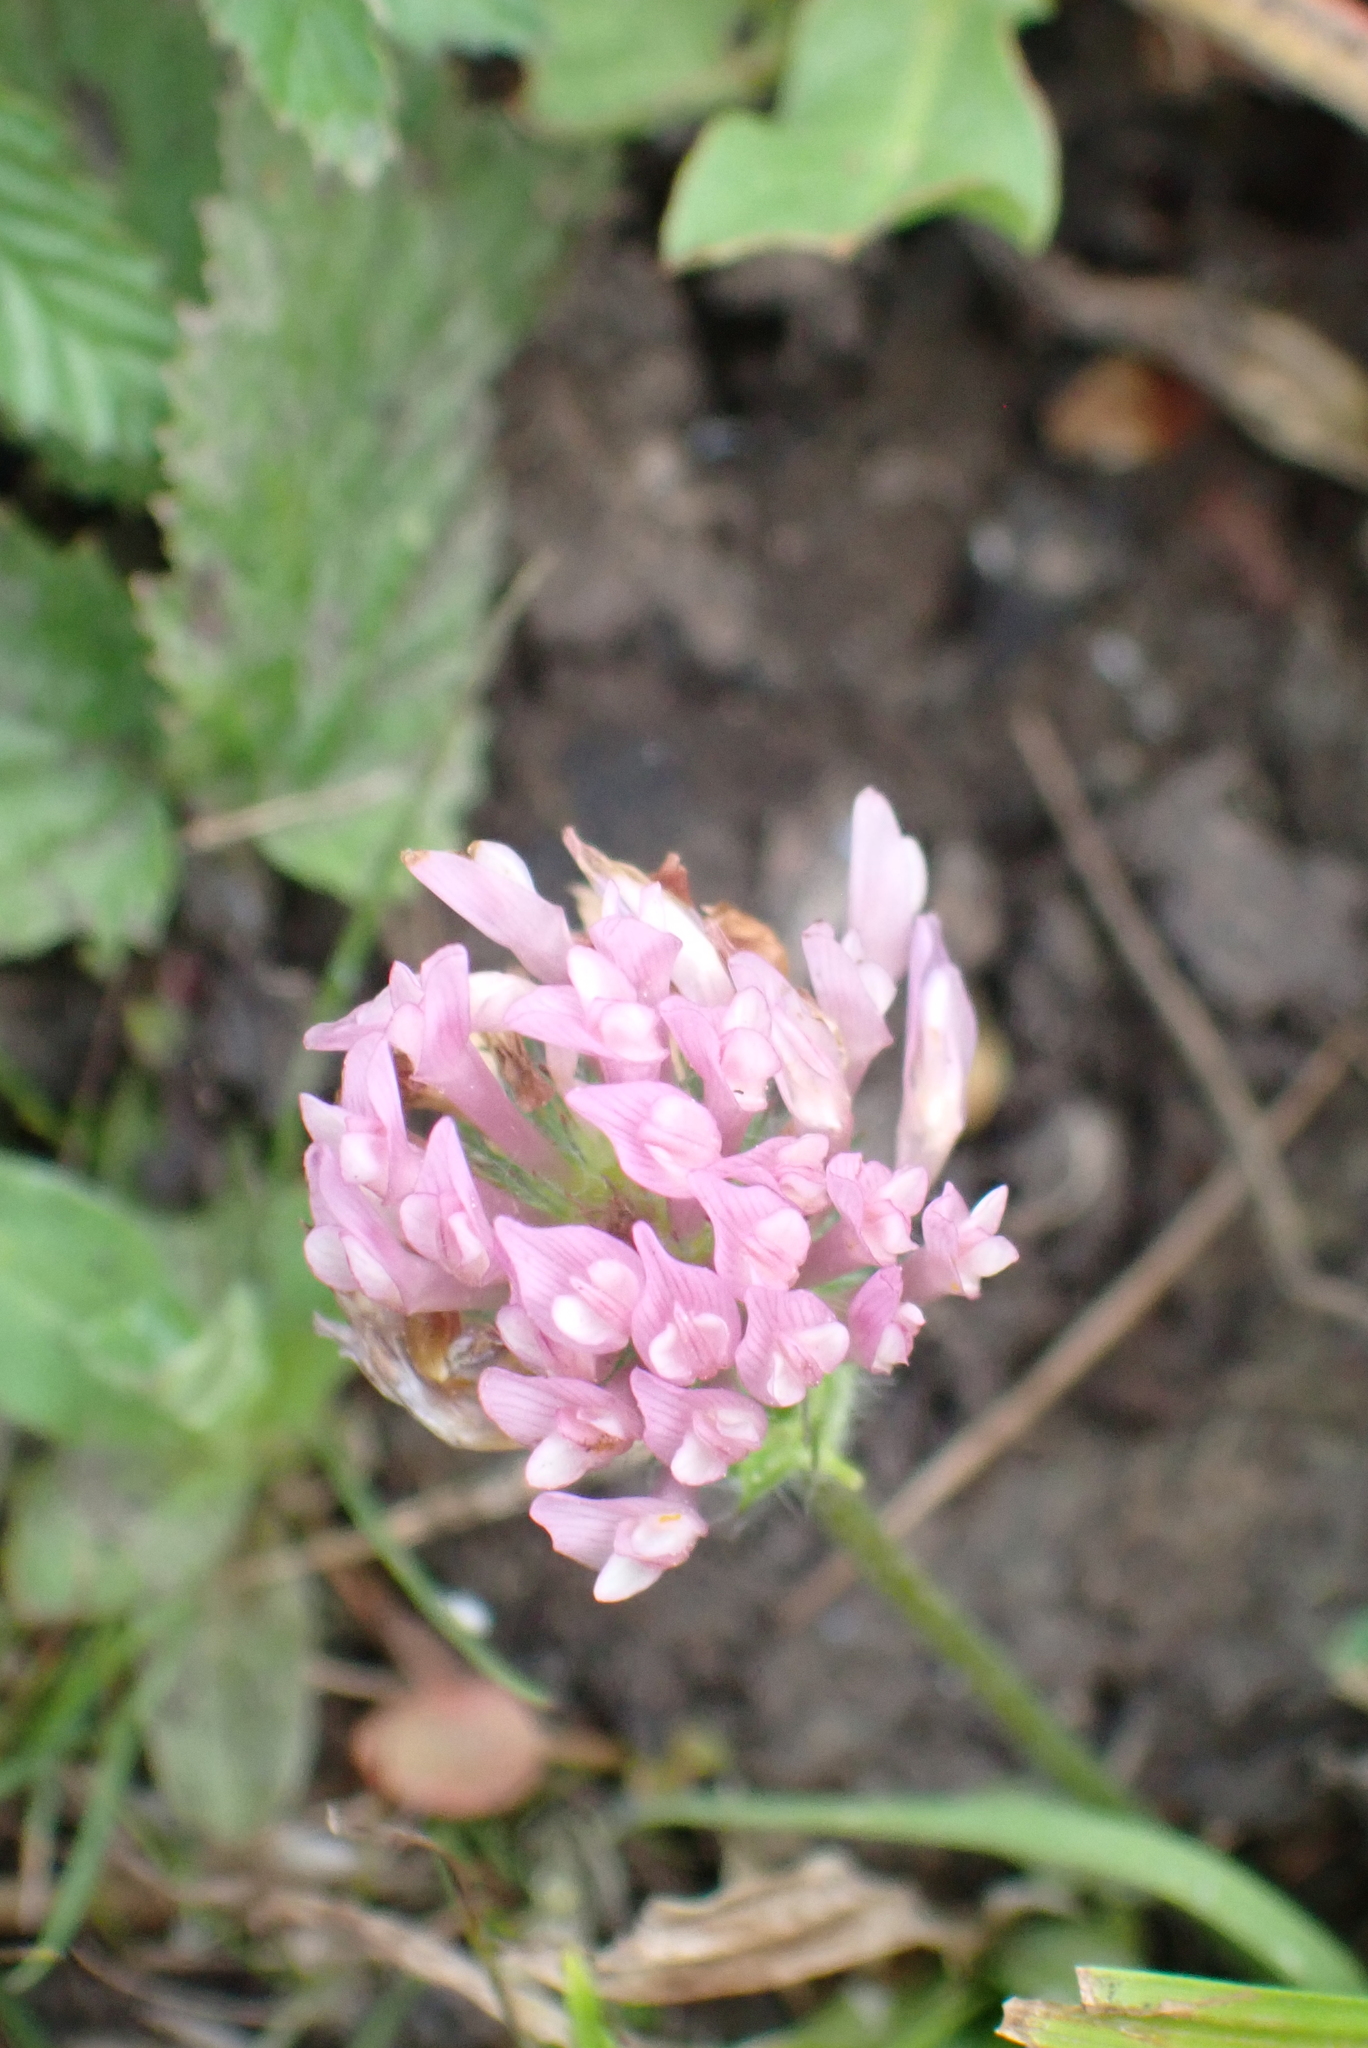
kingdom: Plantae
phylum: Tracheophyta
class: Magnoliopsida
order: Fabales
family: Fabaceae
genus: Trifolium
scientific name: Trifolium pratense
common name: Red clover
